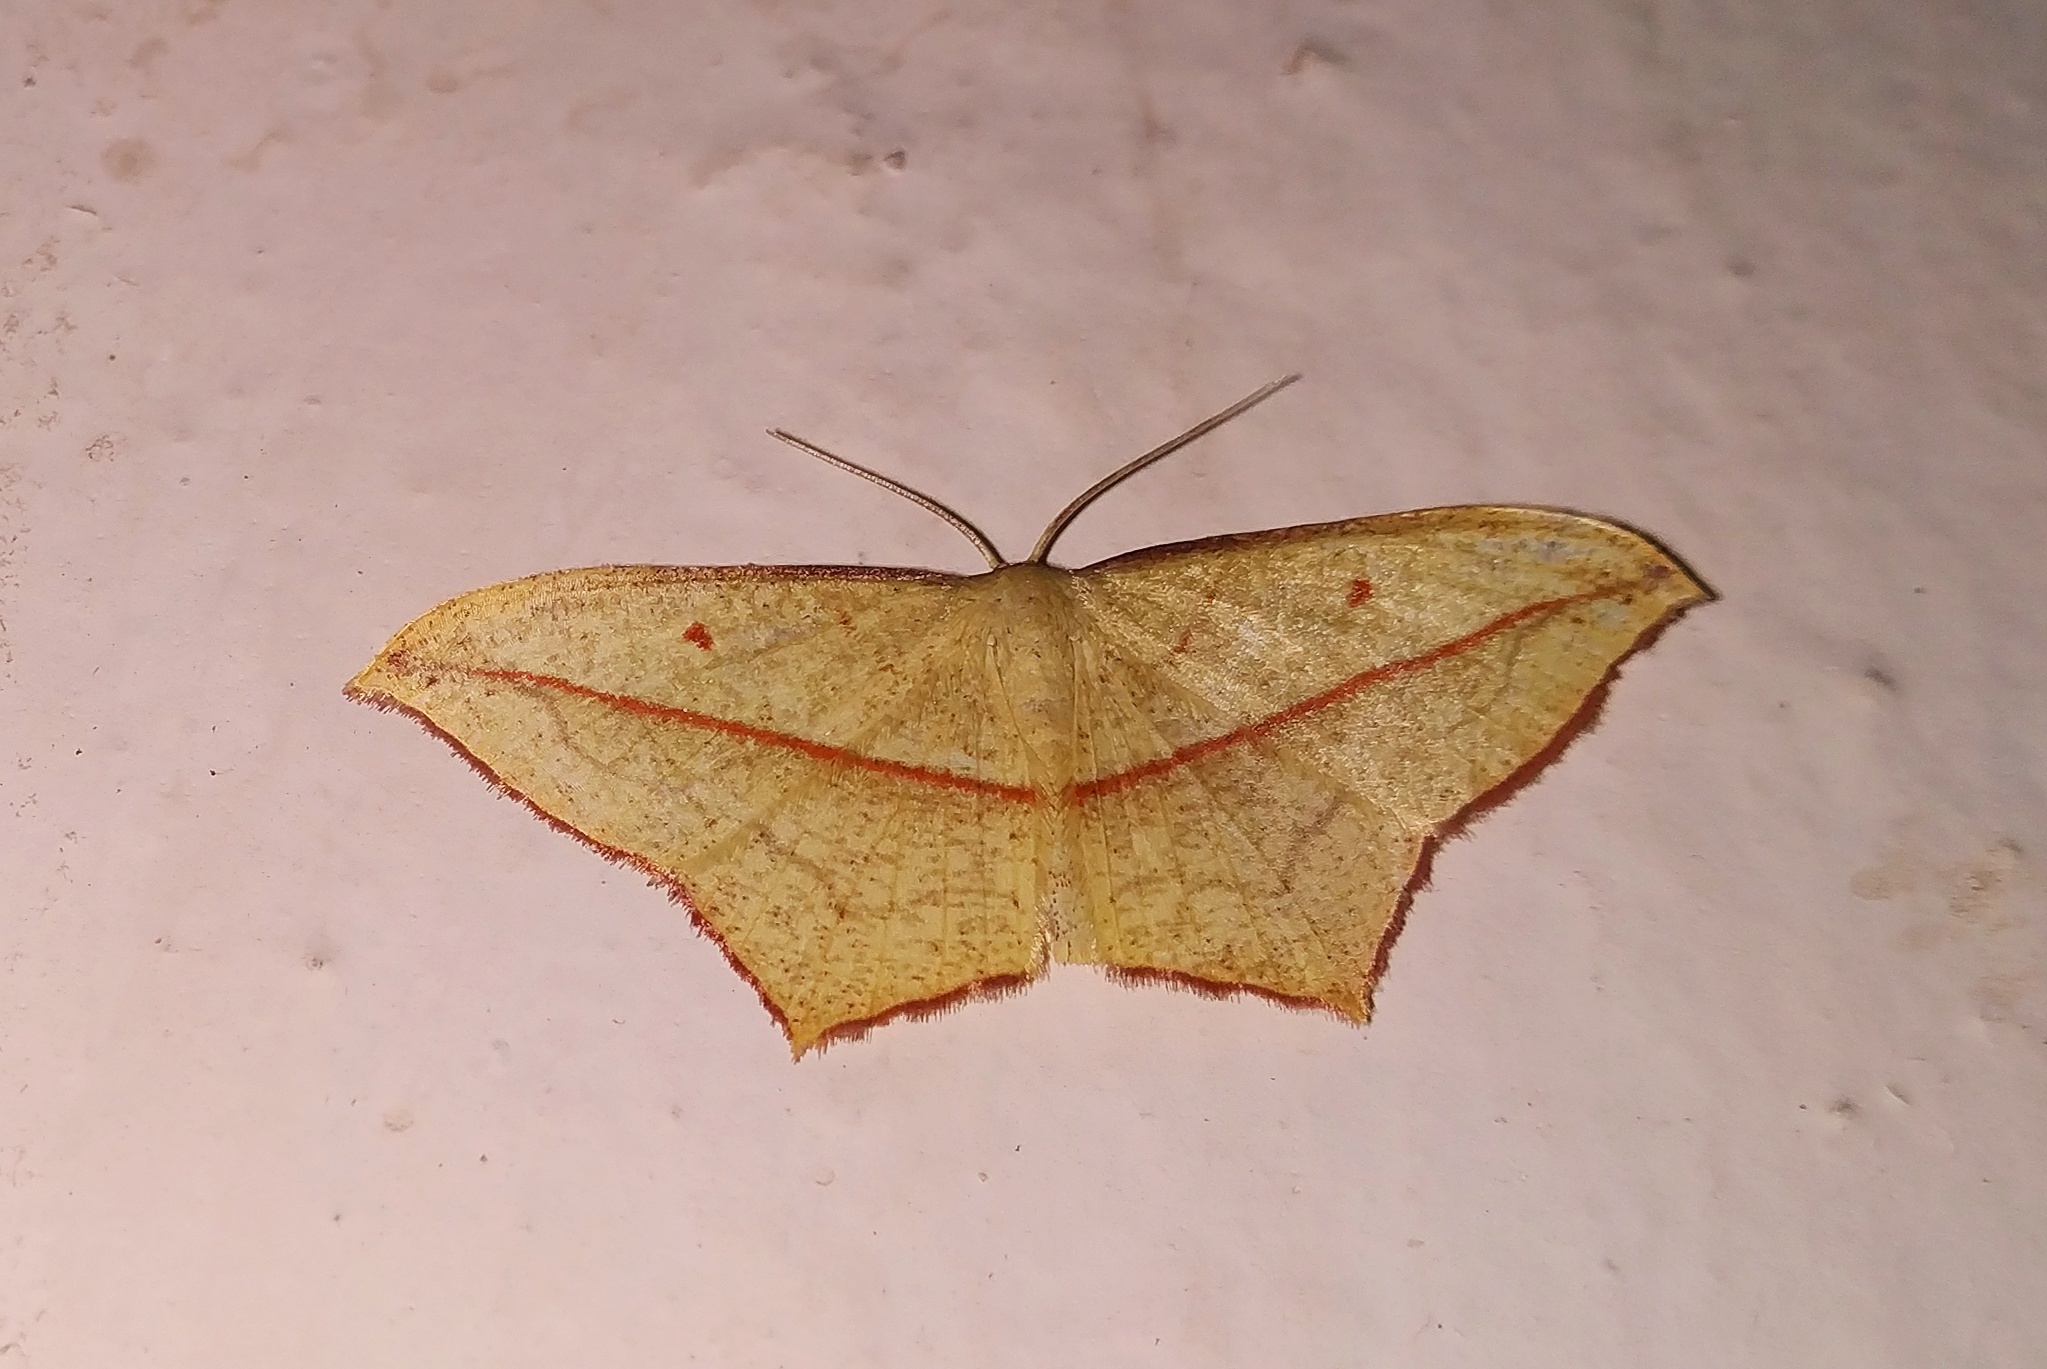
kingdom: Animalia
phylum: Arthropoda
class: Insecta
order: Lepidoptera
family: Geometridae
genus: Timandra
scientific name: Timandra nelsoni
